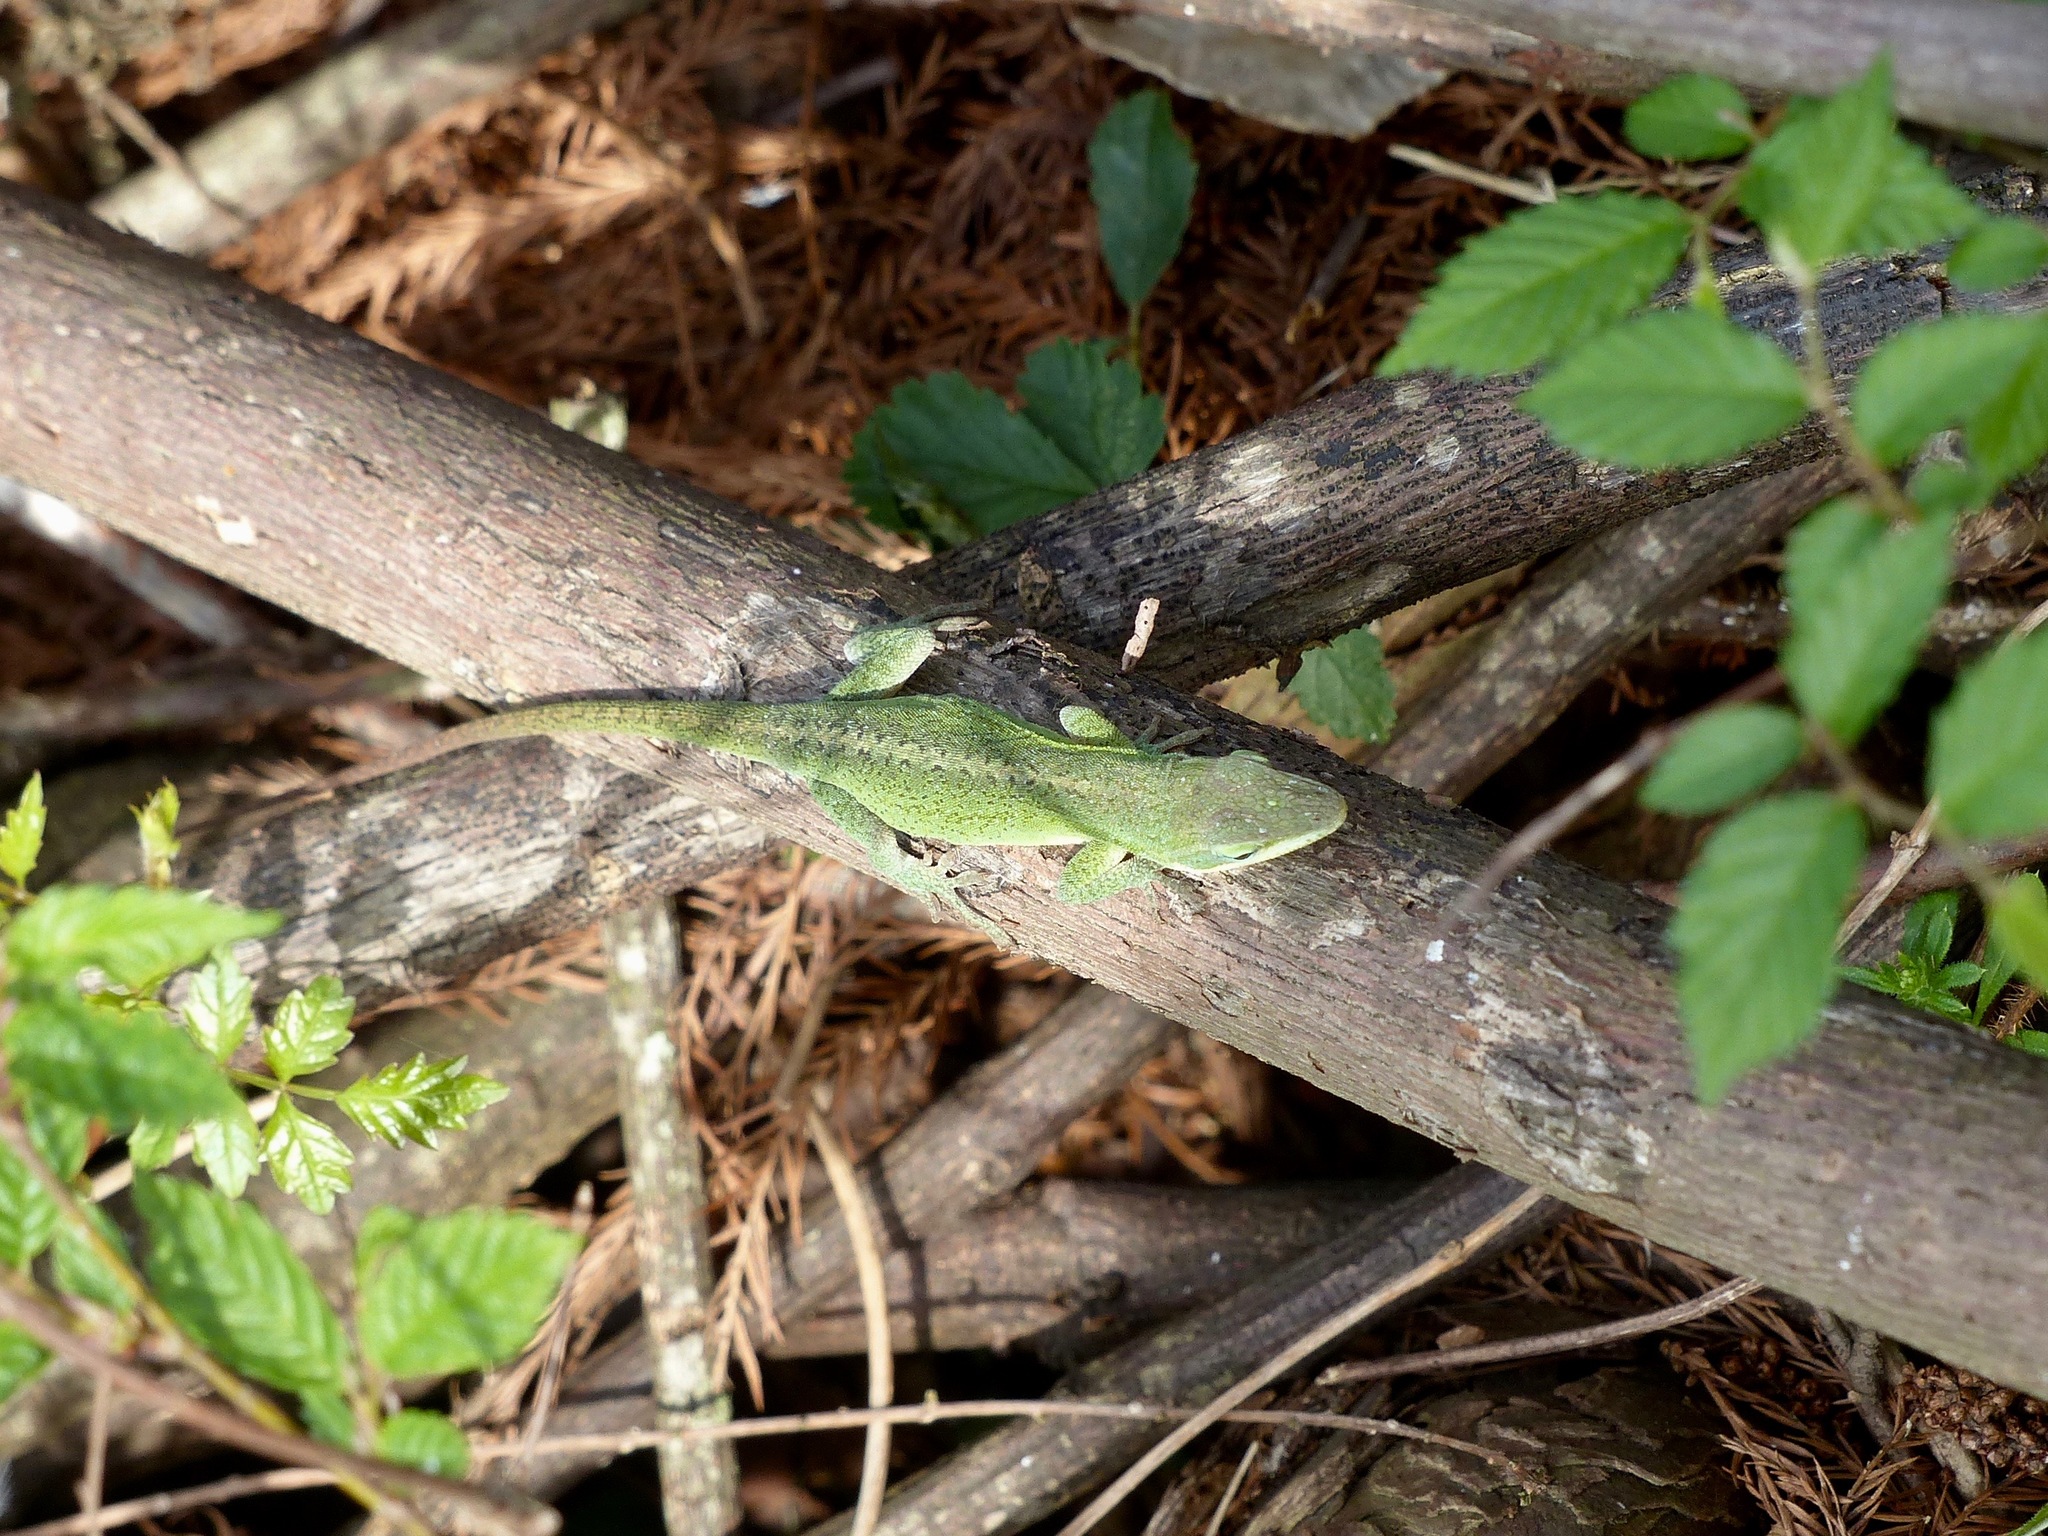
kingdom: Animalia
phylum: Chordata
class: Squamata
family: Dactyloidae
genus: Anolis
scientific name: Anolis carolinensis
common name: Green anole
